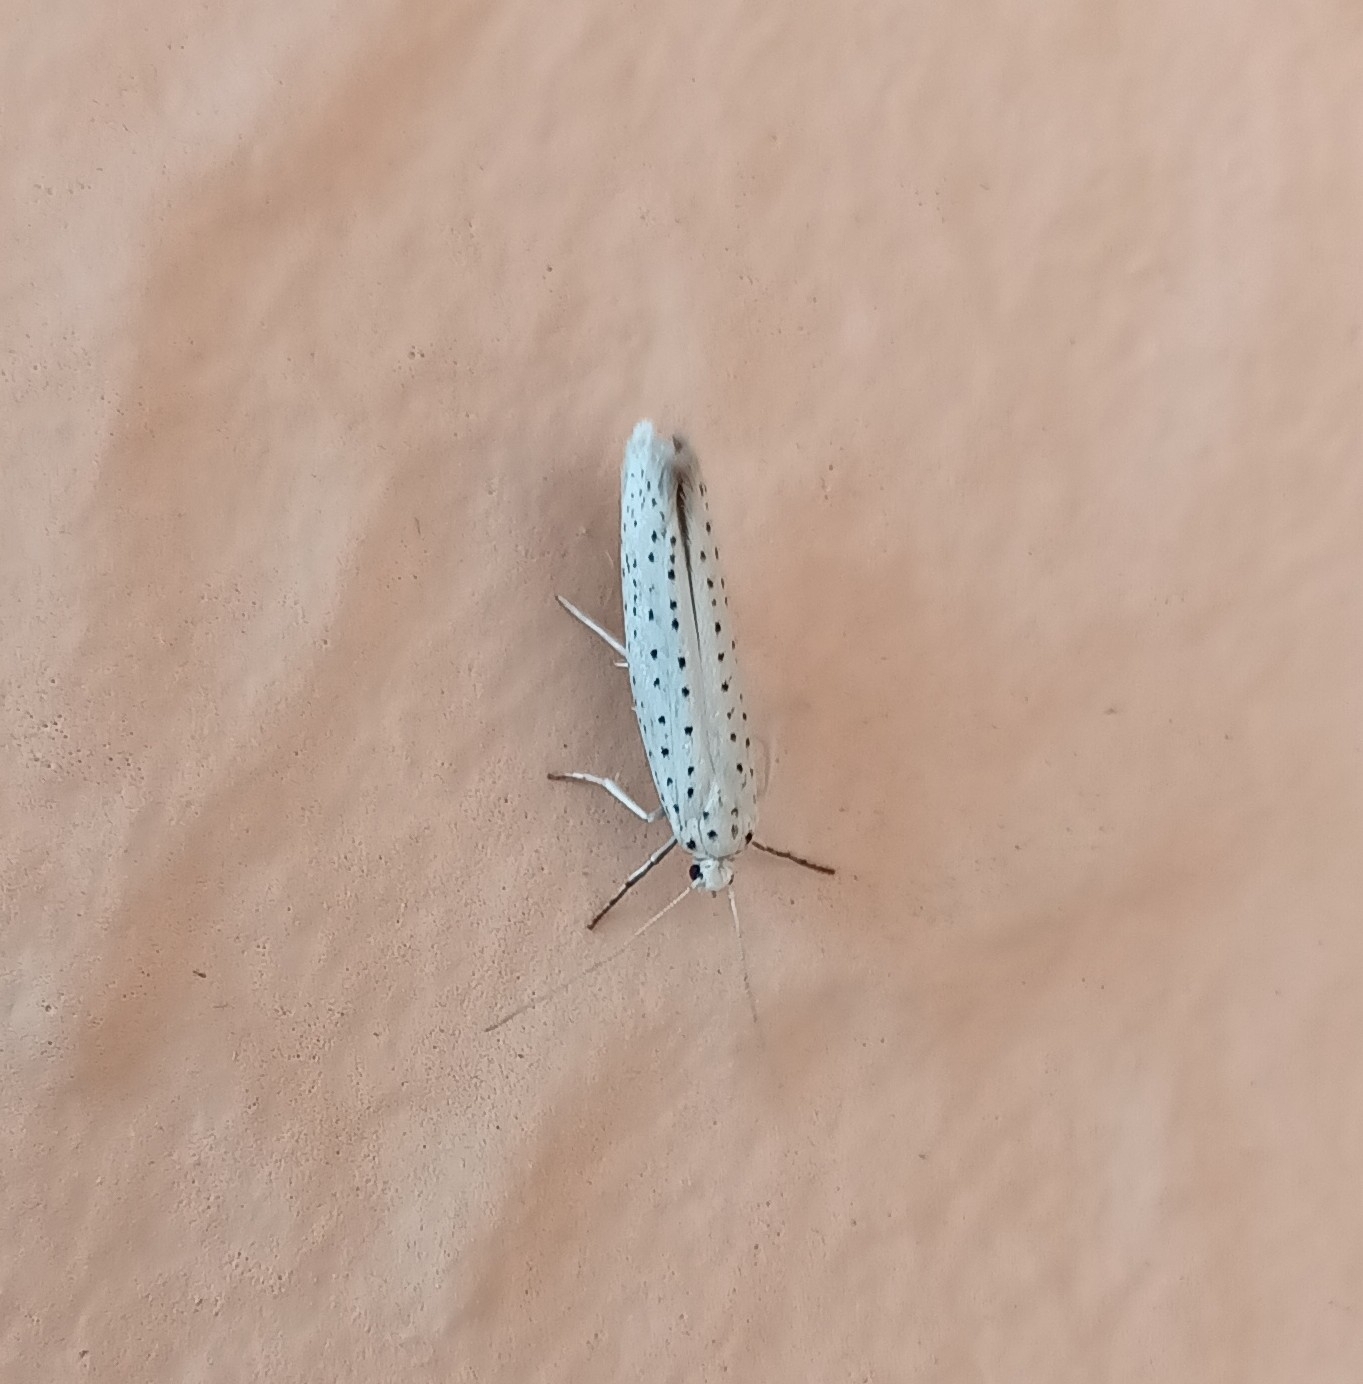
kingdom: Animalia
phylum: Arthropoda
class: Insecta
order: Lepidoptera
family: Yponomeutidae
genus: Yponomeuta
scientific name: Yponomeuta evonymella
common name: Bird-cherry ermine
